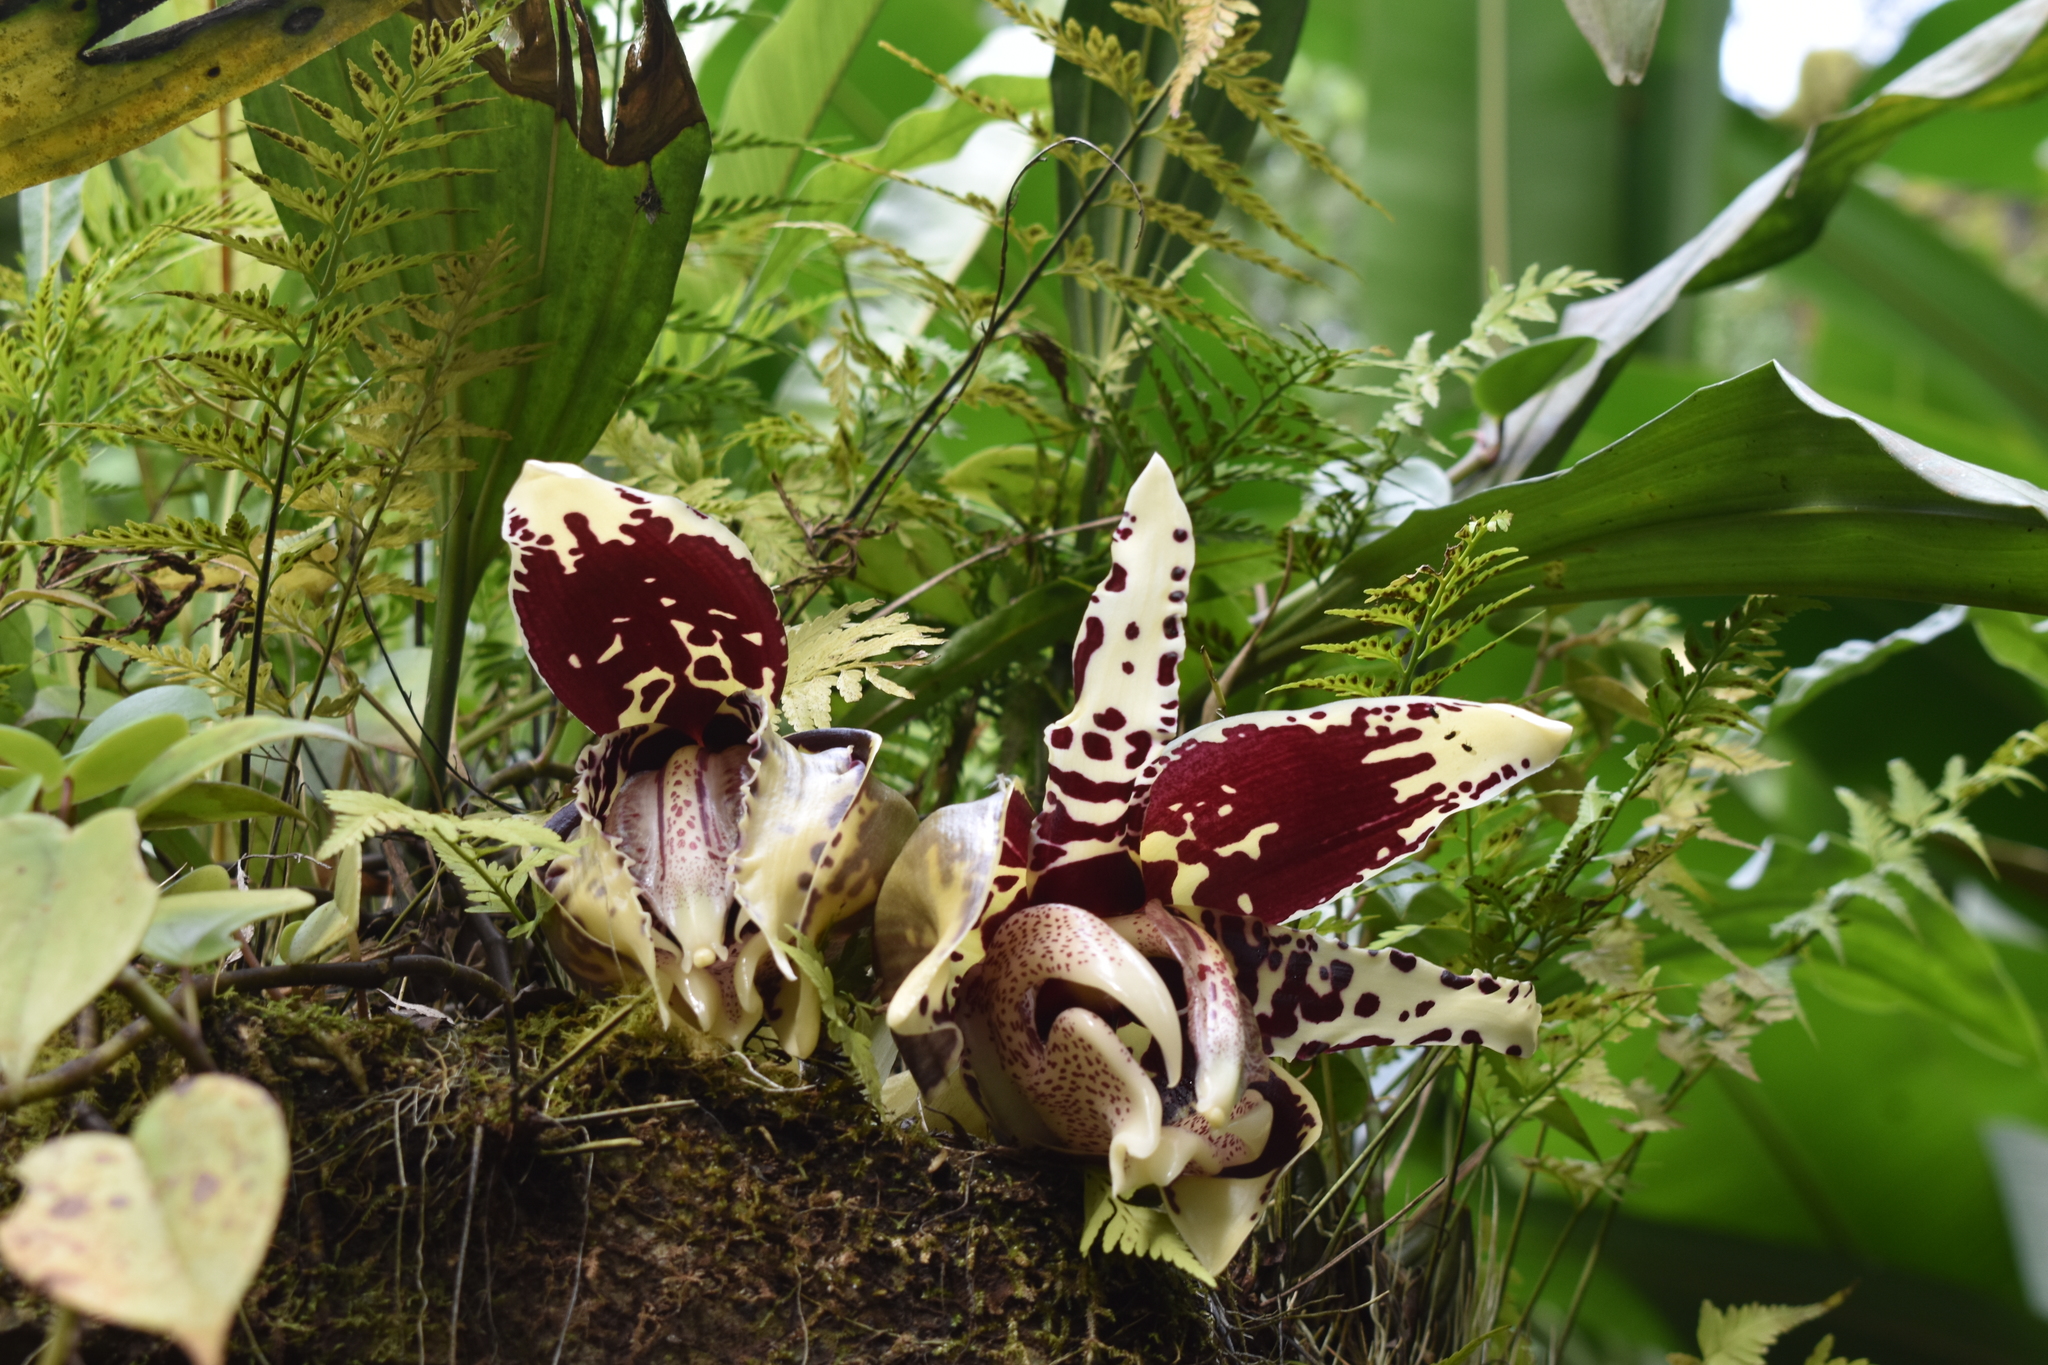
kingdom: Plantae
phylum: Tracheophyta
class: Liliopsida
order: Asparagales
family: Orchidaceae
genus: Stanhopea
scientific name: Stanhopea tigrina
